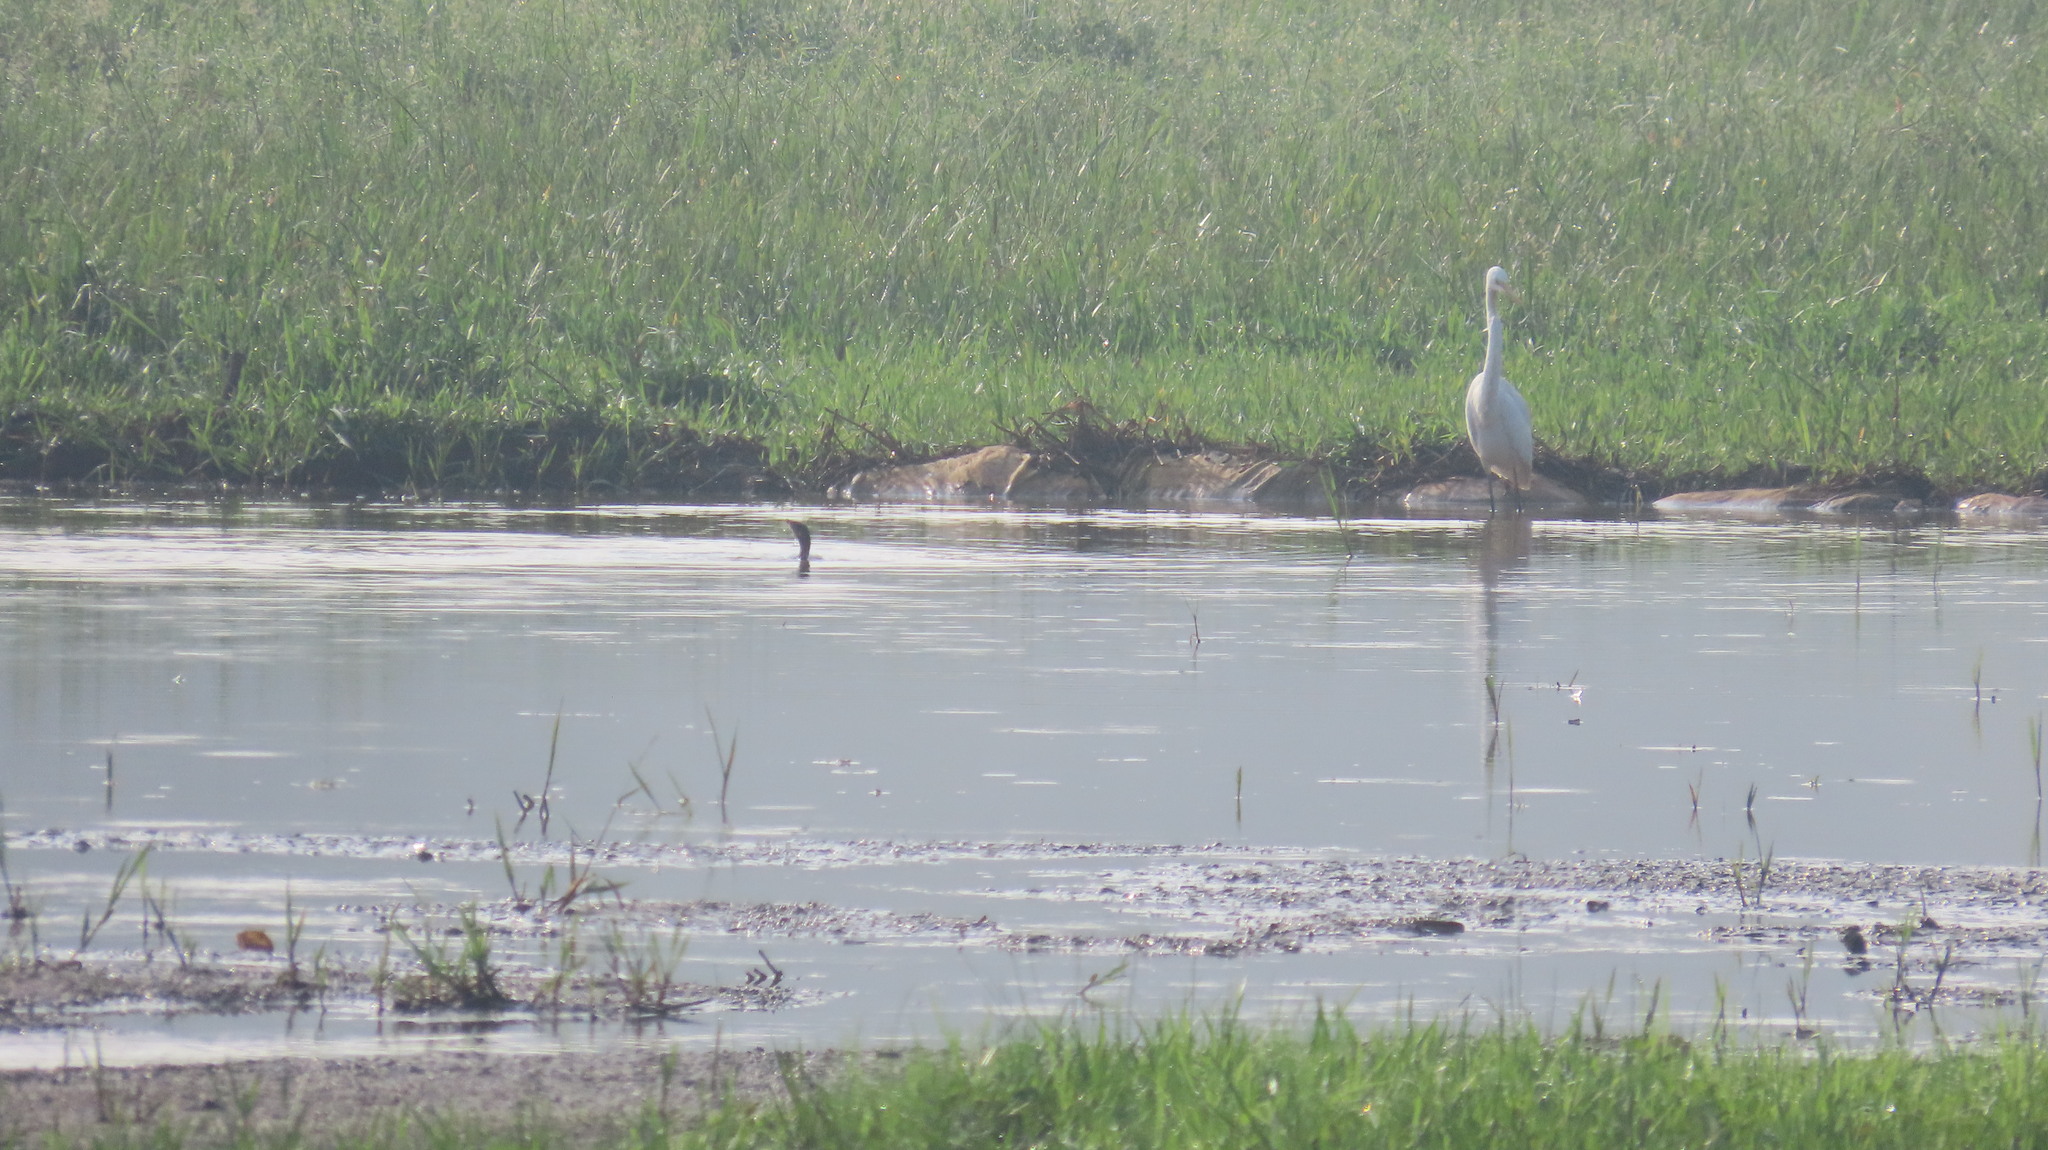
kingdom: Animalia
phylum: Chordata
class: Aves
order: Suliformes
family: Phalacrocoracidae
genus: Microcarbo
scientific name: Microcarbo niger
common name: Little cormorant
